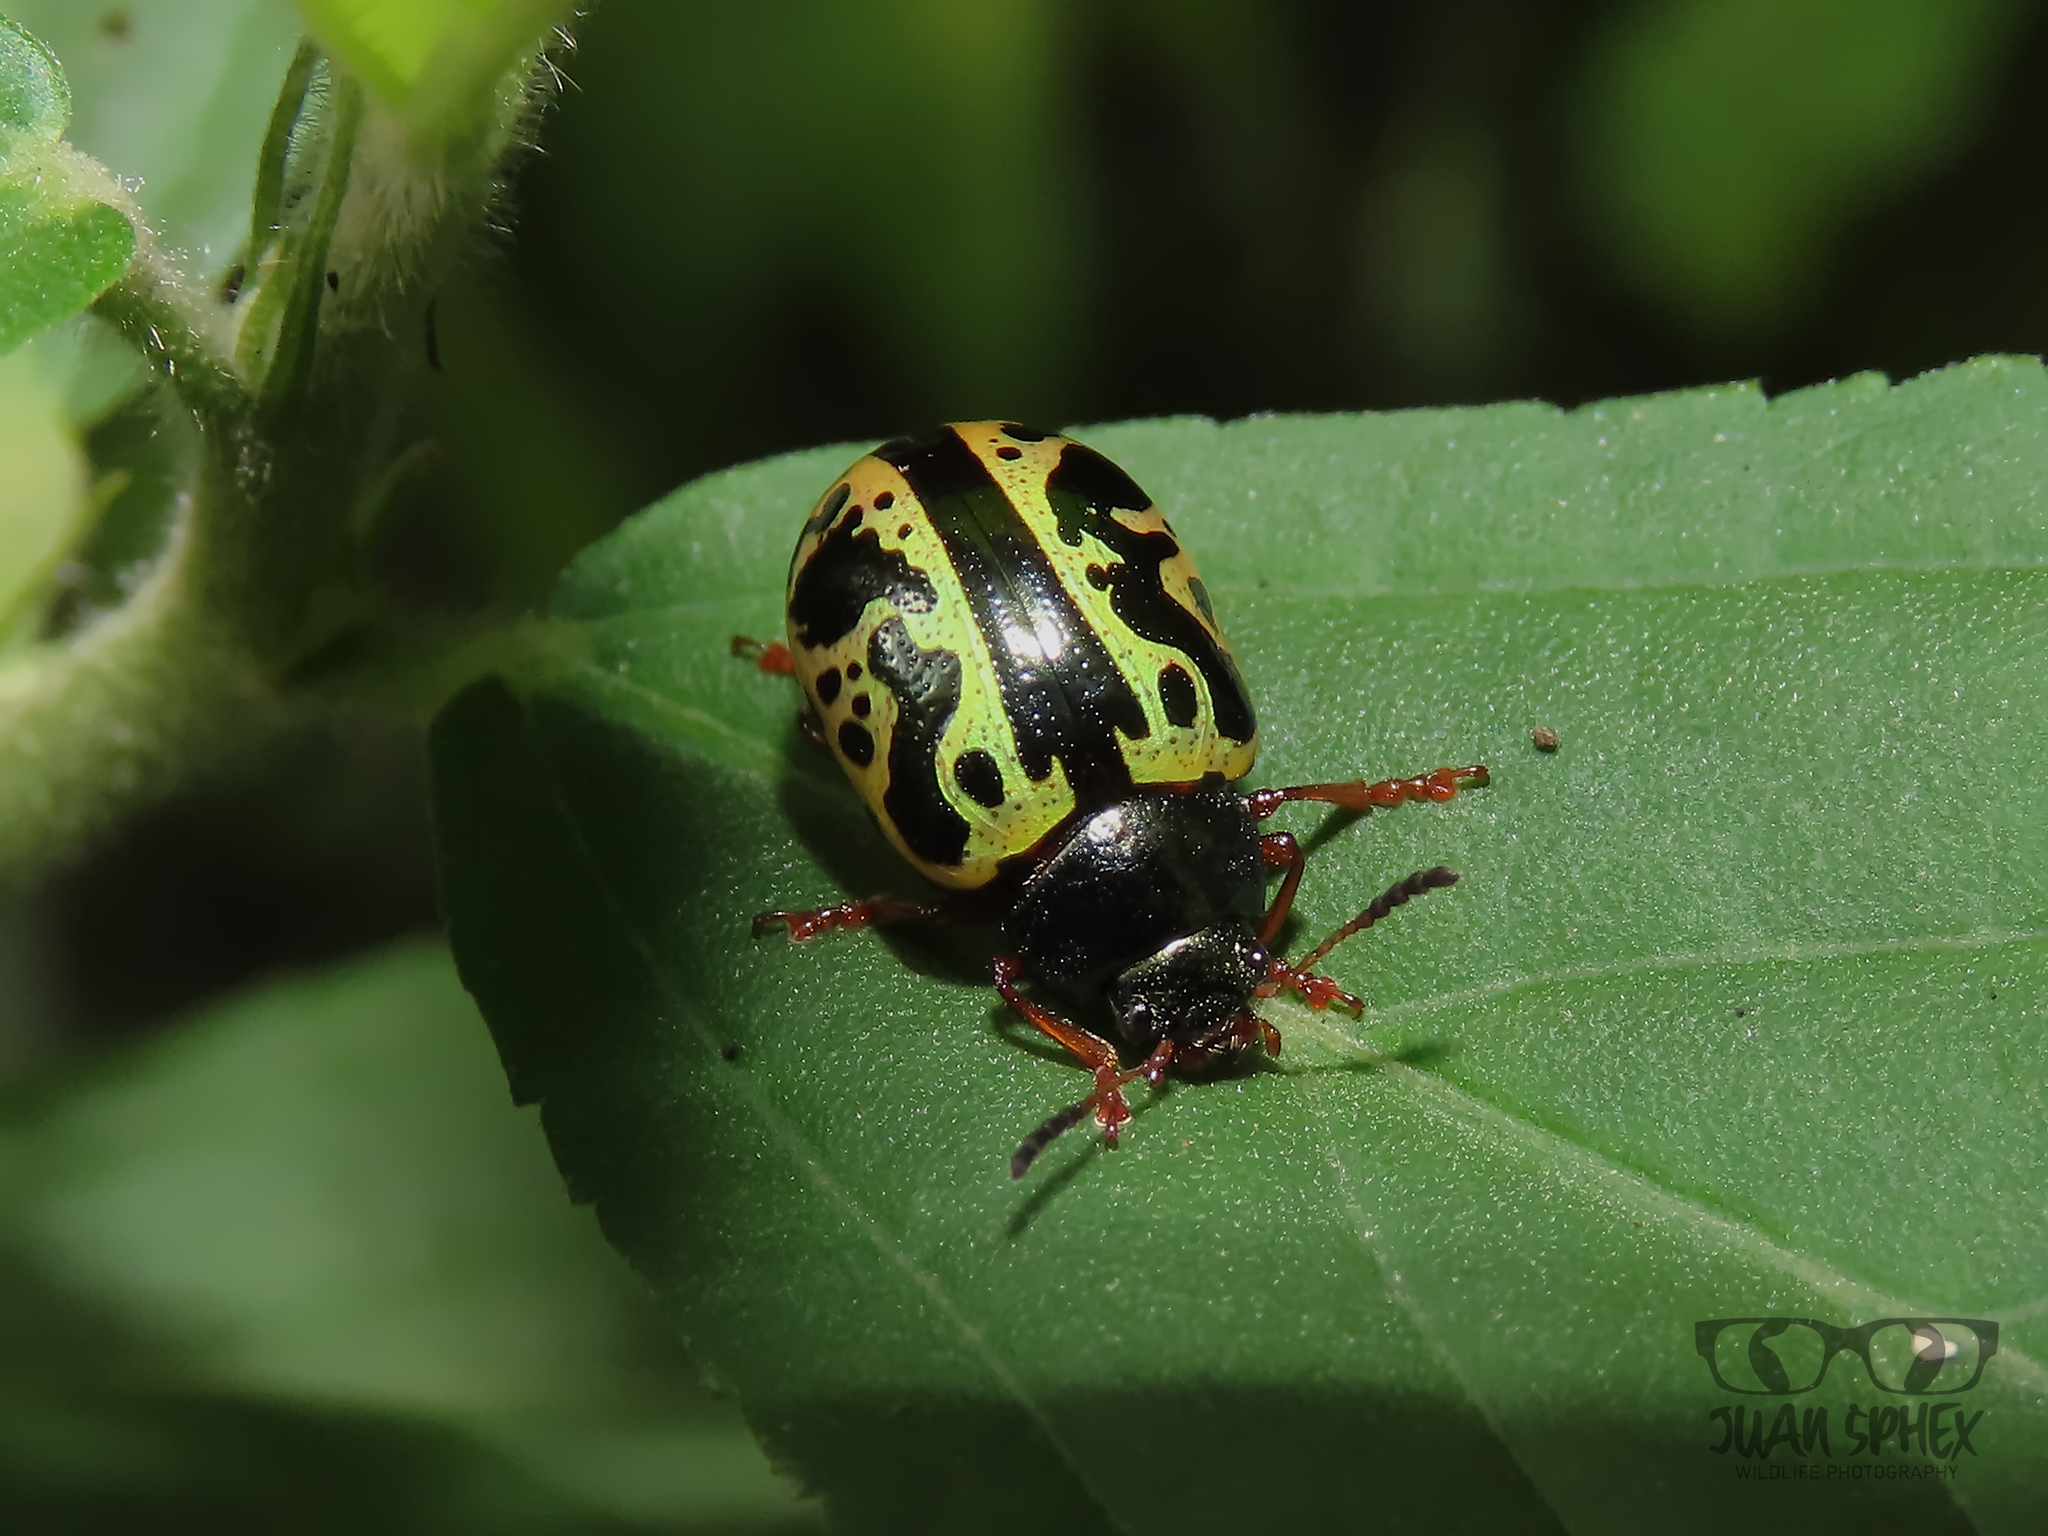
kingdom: Animalia
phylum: Arthropoda
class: Insecta
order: Coleoptera
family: Chrysomelidae
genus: Calligrapha
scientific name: Calligrapha fulvipes
